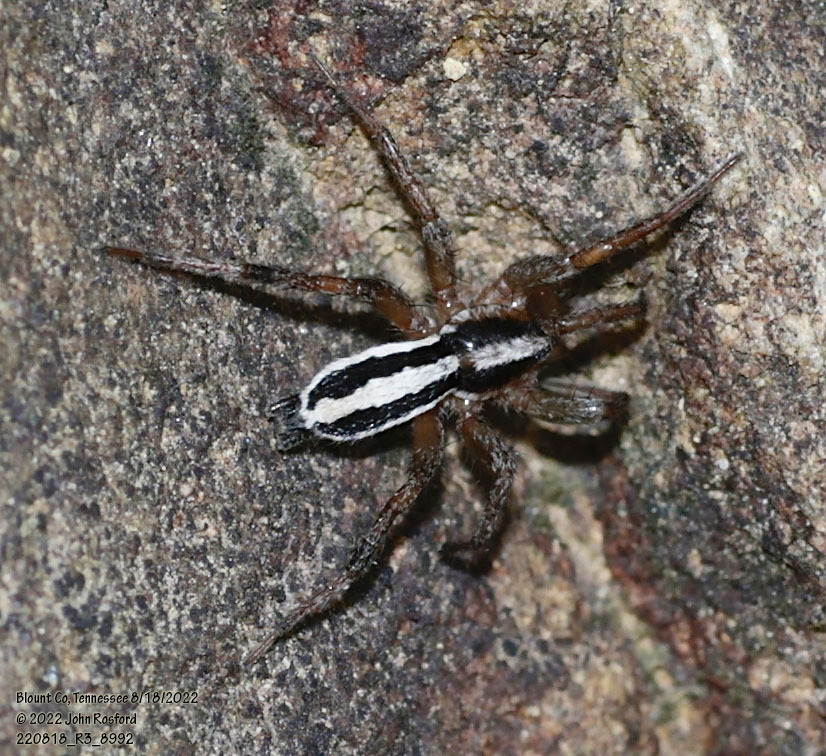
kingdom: Animalia
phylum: Arthropoda
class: Arachnida
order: Araneae
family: Gnaphosidae
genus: Cesonia
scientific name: Cesonia bilineata
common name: Two-lined stealthy ground spider
